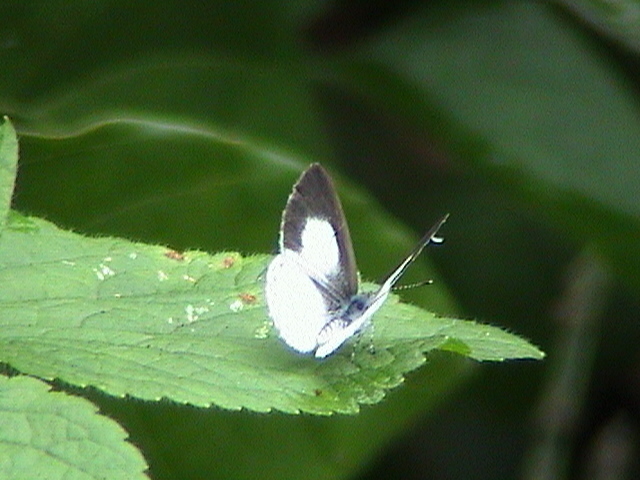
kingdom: Animalia
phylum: Arthropoda
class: Insecta
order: Lepidoptera
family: Lycaenidae
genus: Udara
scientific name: Udara akasa
